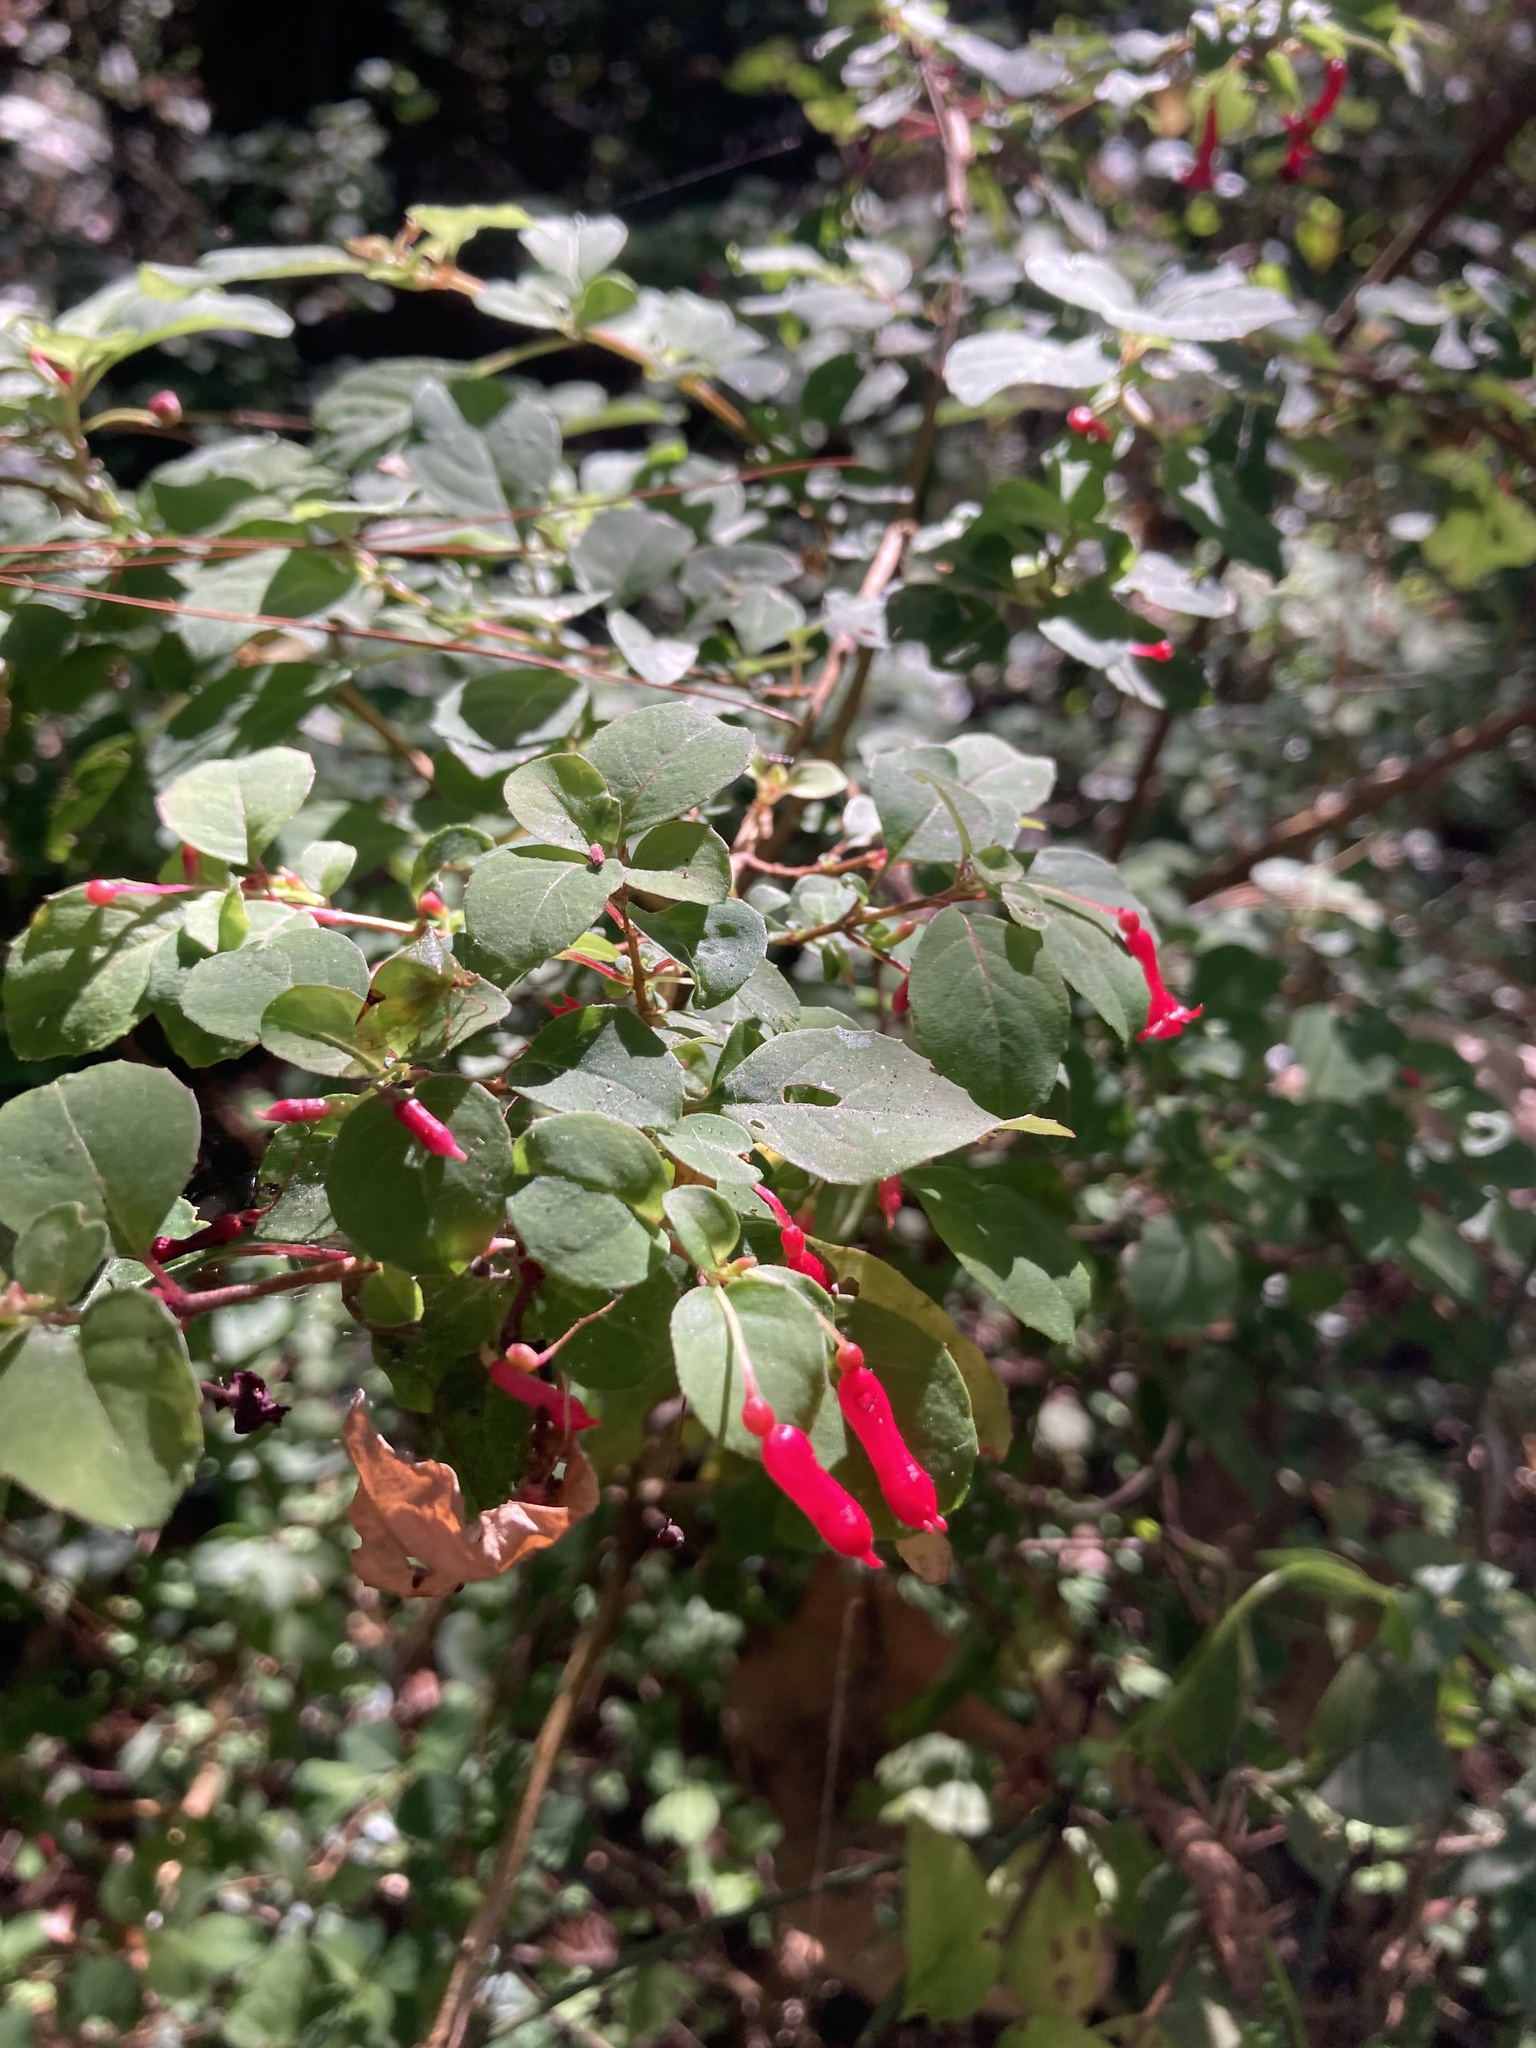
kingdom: Plantae
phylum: Tracheophyta
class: Magnoliopsida
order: Myrtales
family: Onagraceae
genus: Fuchsia
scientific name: Fuchsia microphylla
